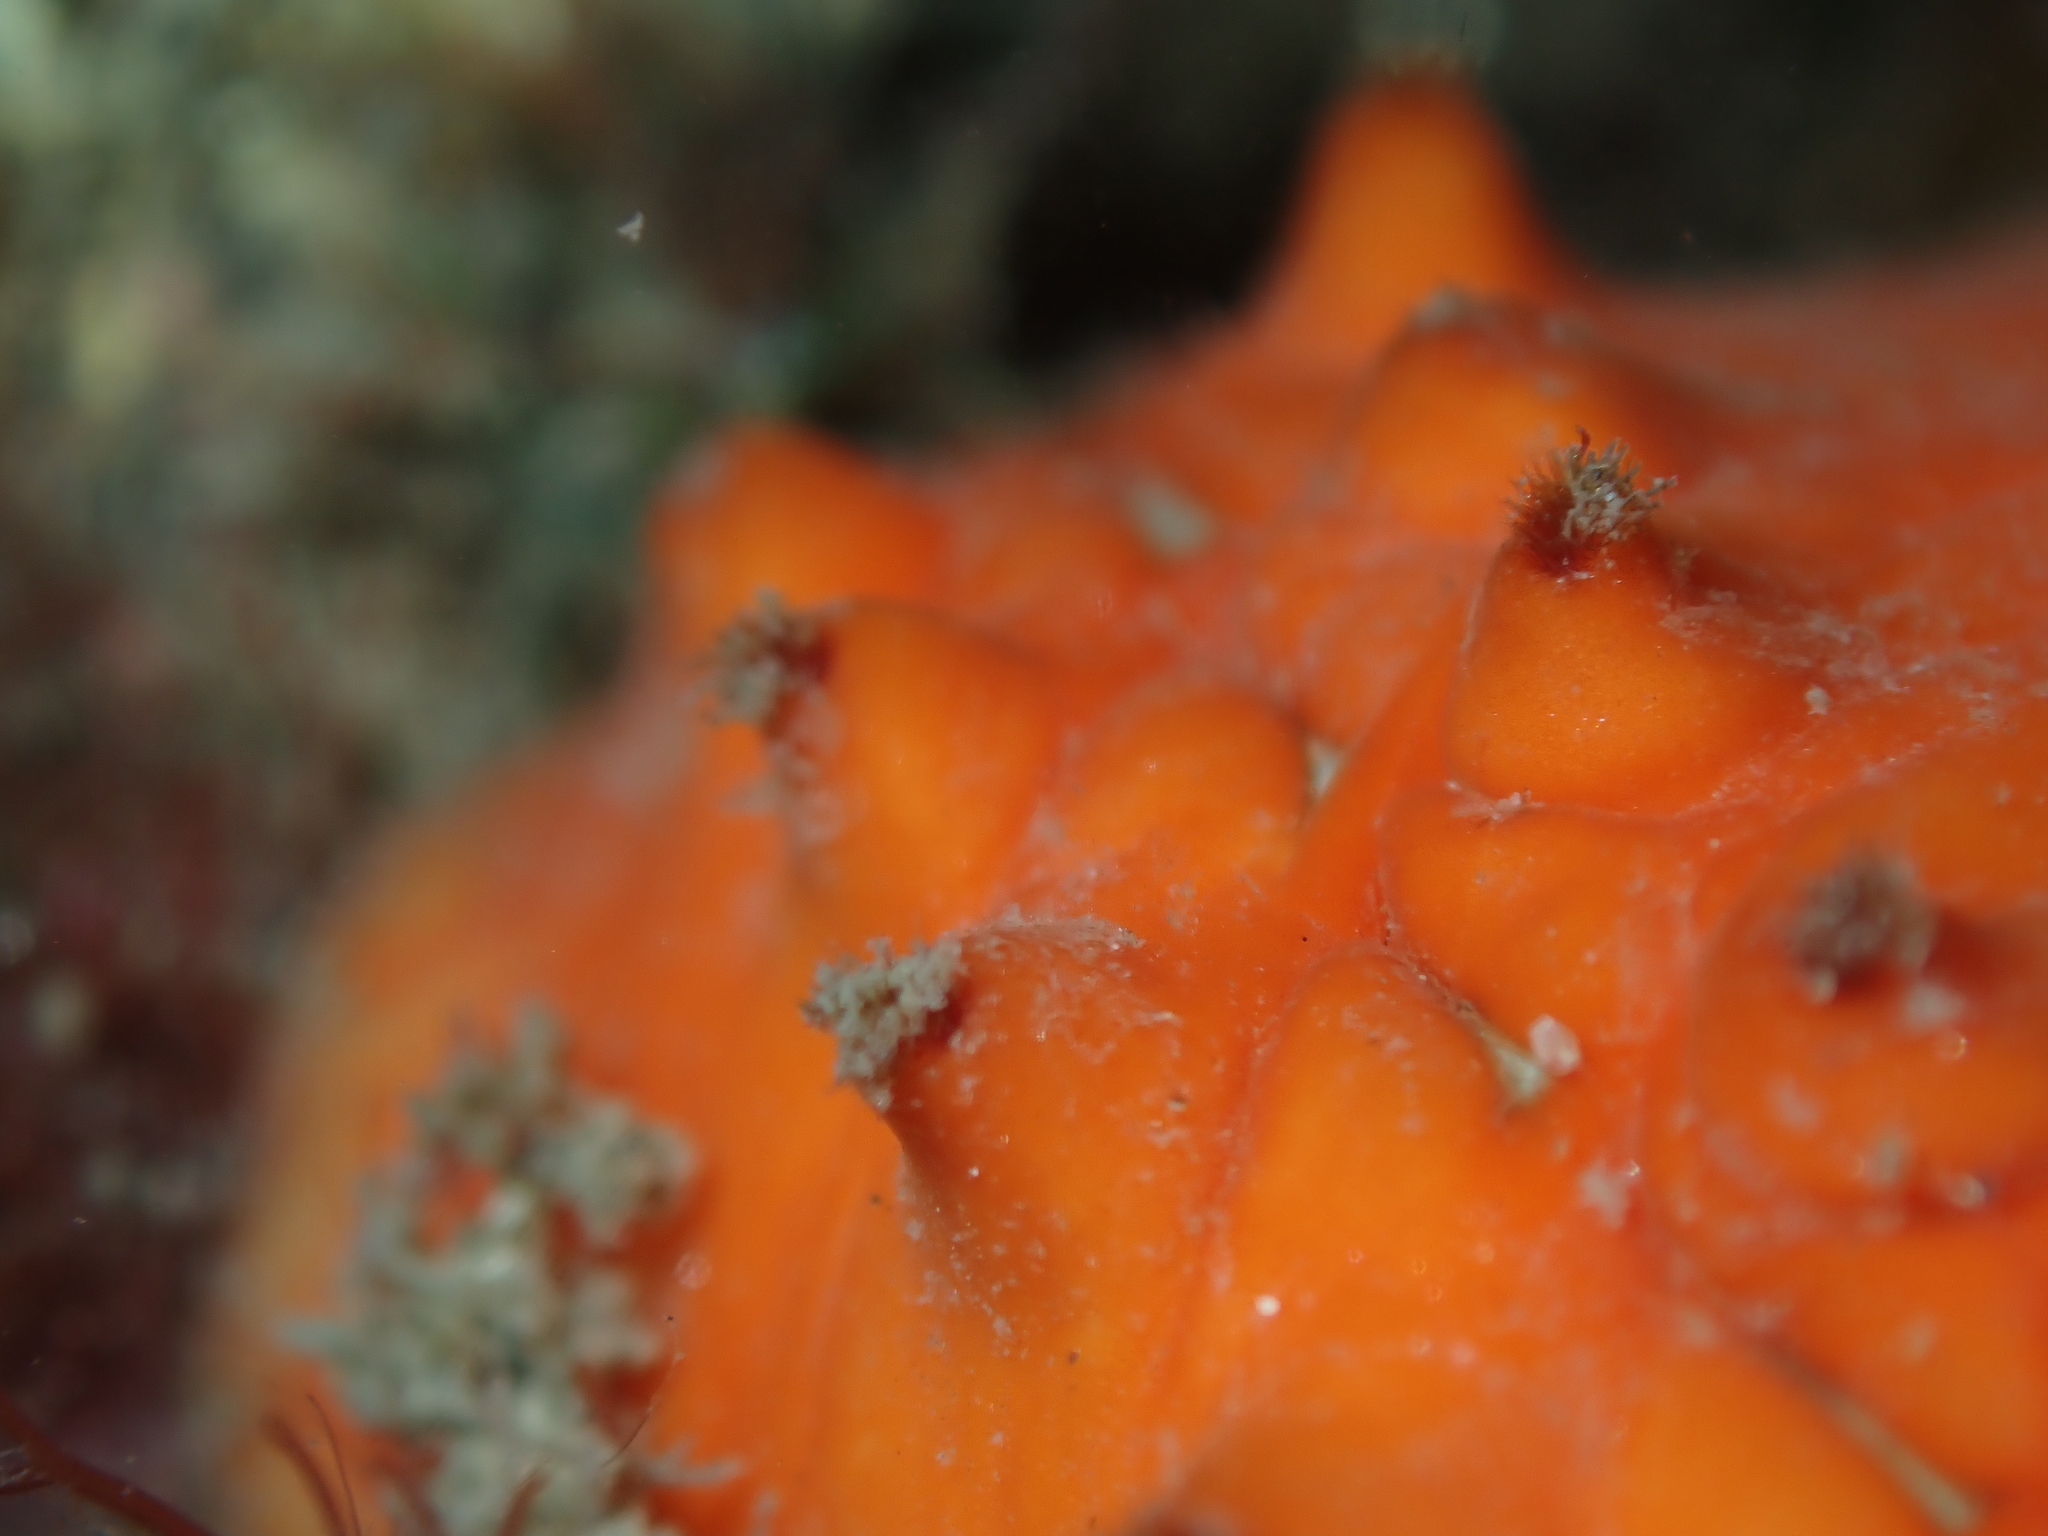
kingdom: Animalia
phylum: Mollusca
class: Polyplacophora
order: Chitonida
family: Acanthochitonidae
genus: Cryptoconchus
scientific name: Cryptoconchus porosus
